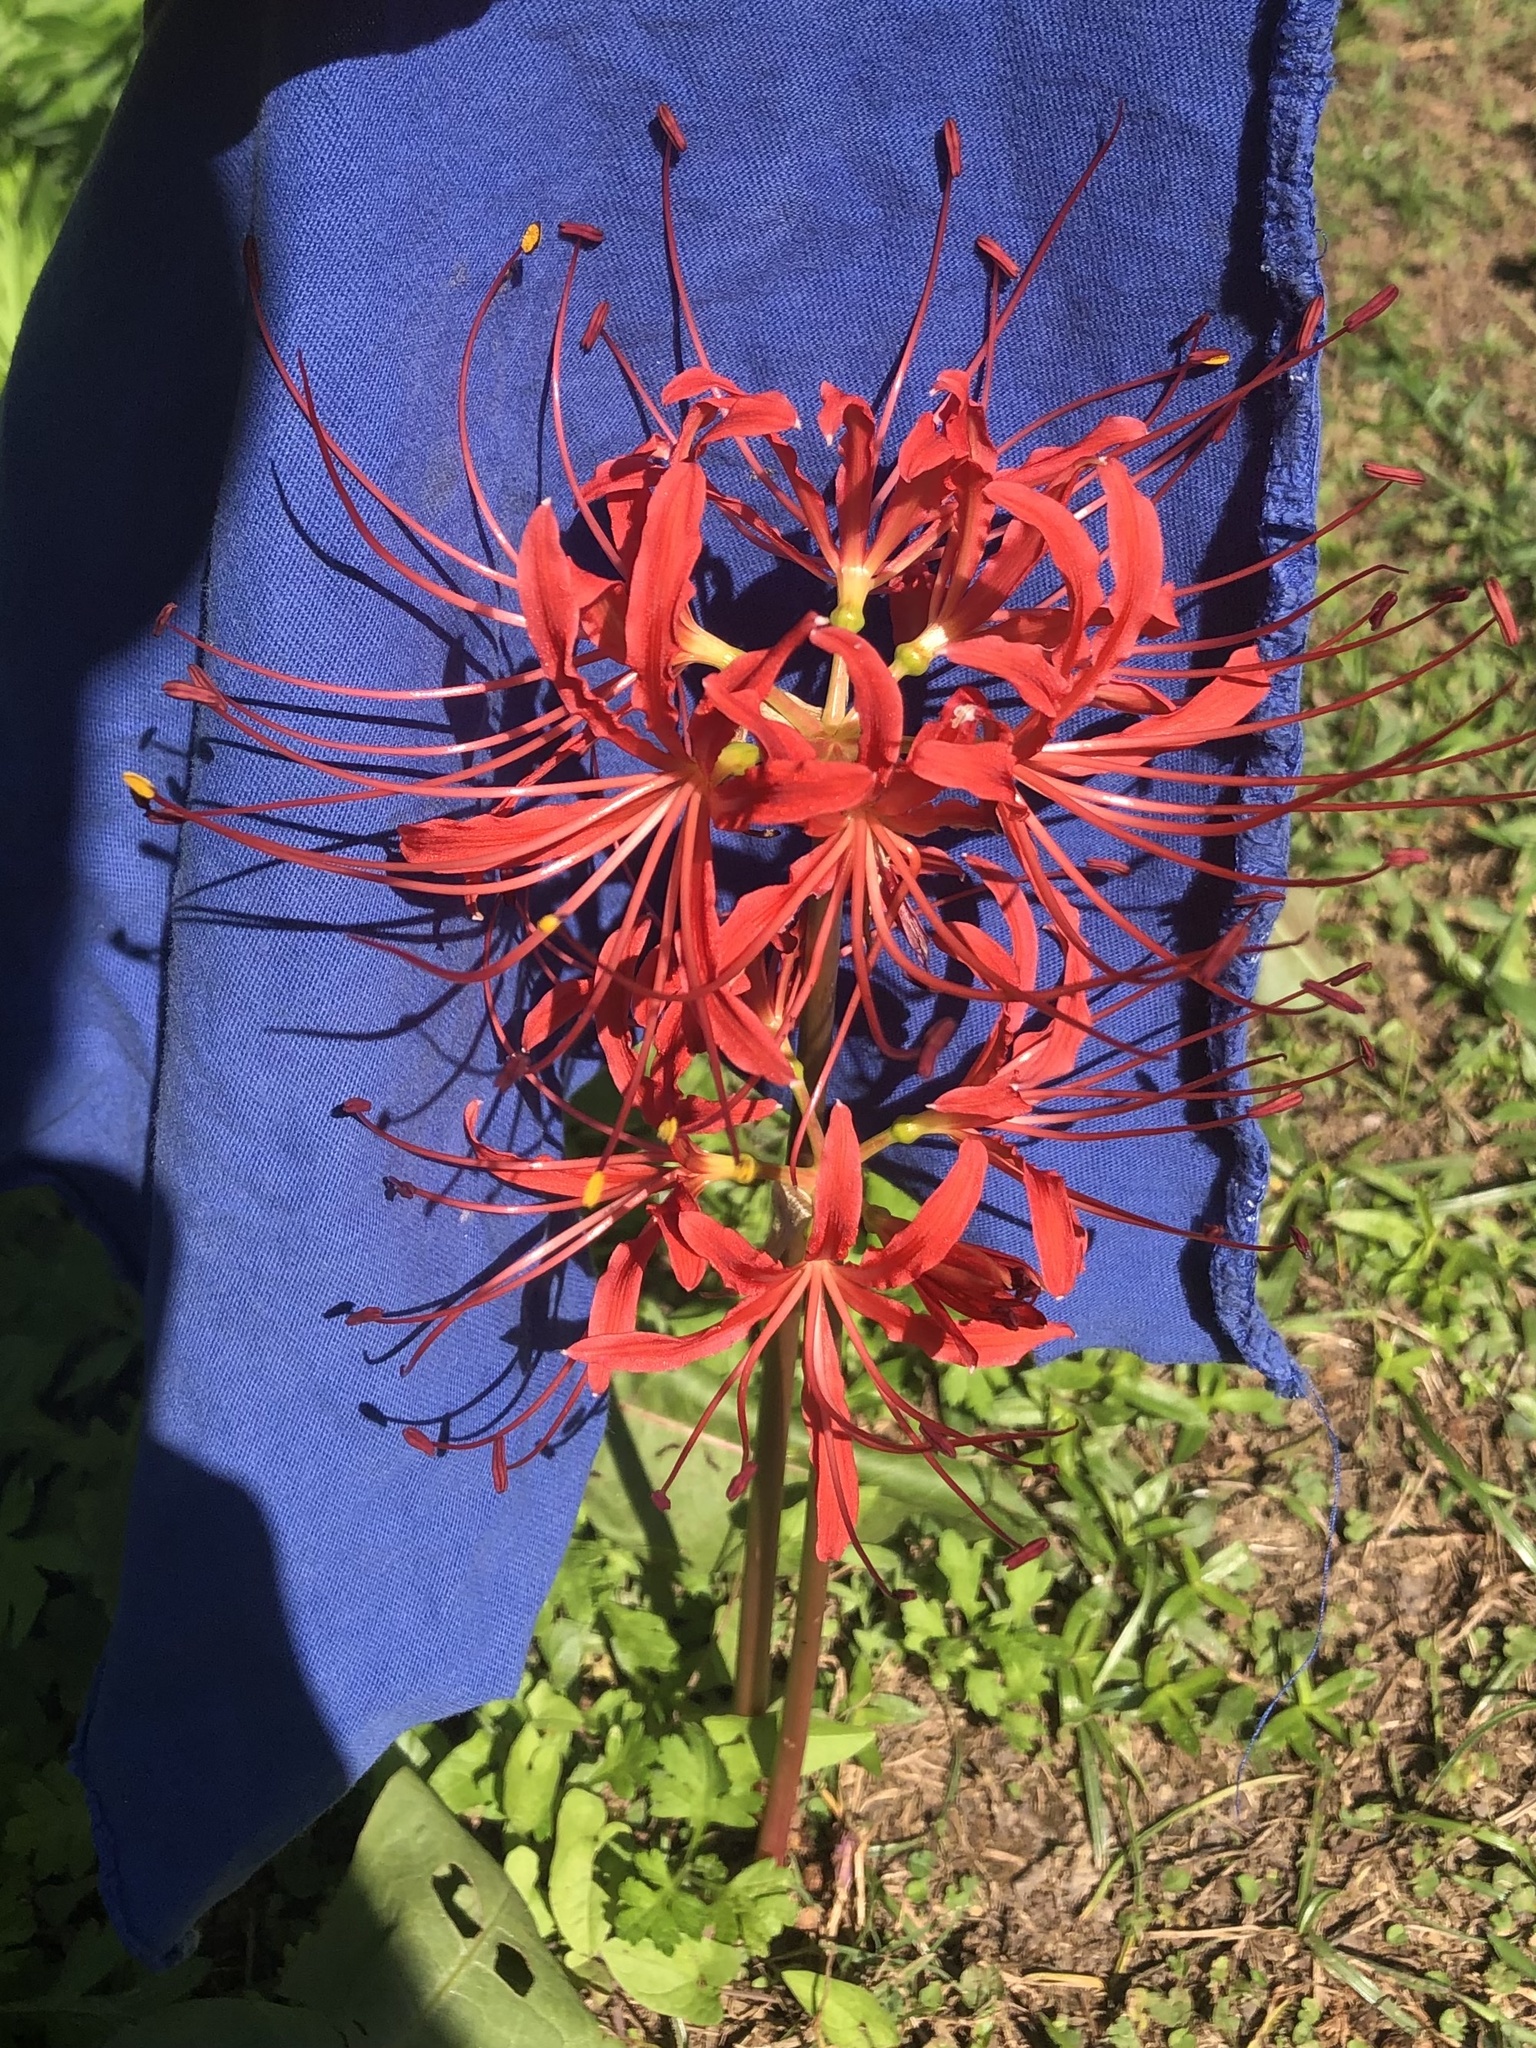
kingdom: Plantae
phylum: Tracheophyta
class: Liliopsida
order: Asparagales
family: Amaryllidaceae
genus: Lycoris
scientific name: Lycoris radiata
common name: Red spider lily
